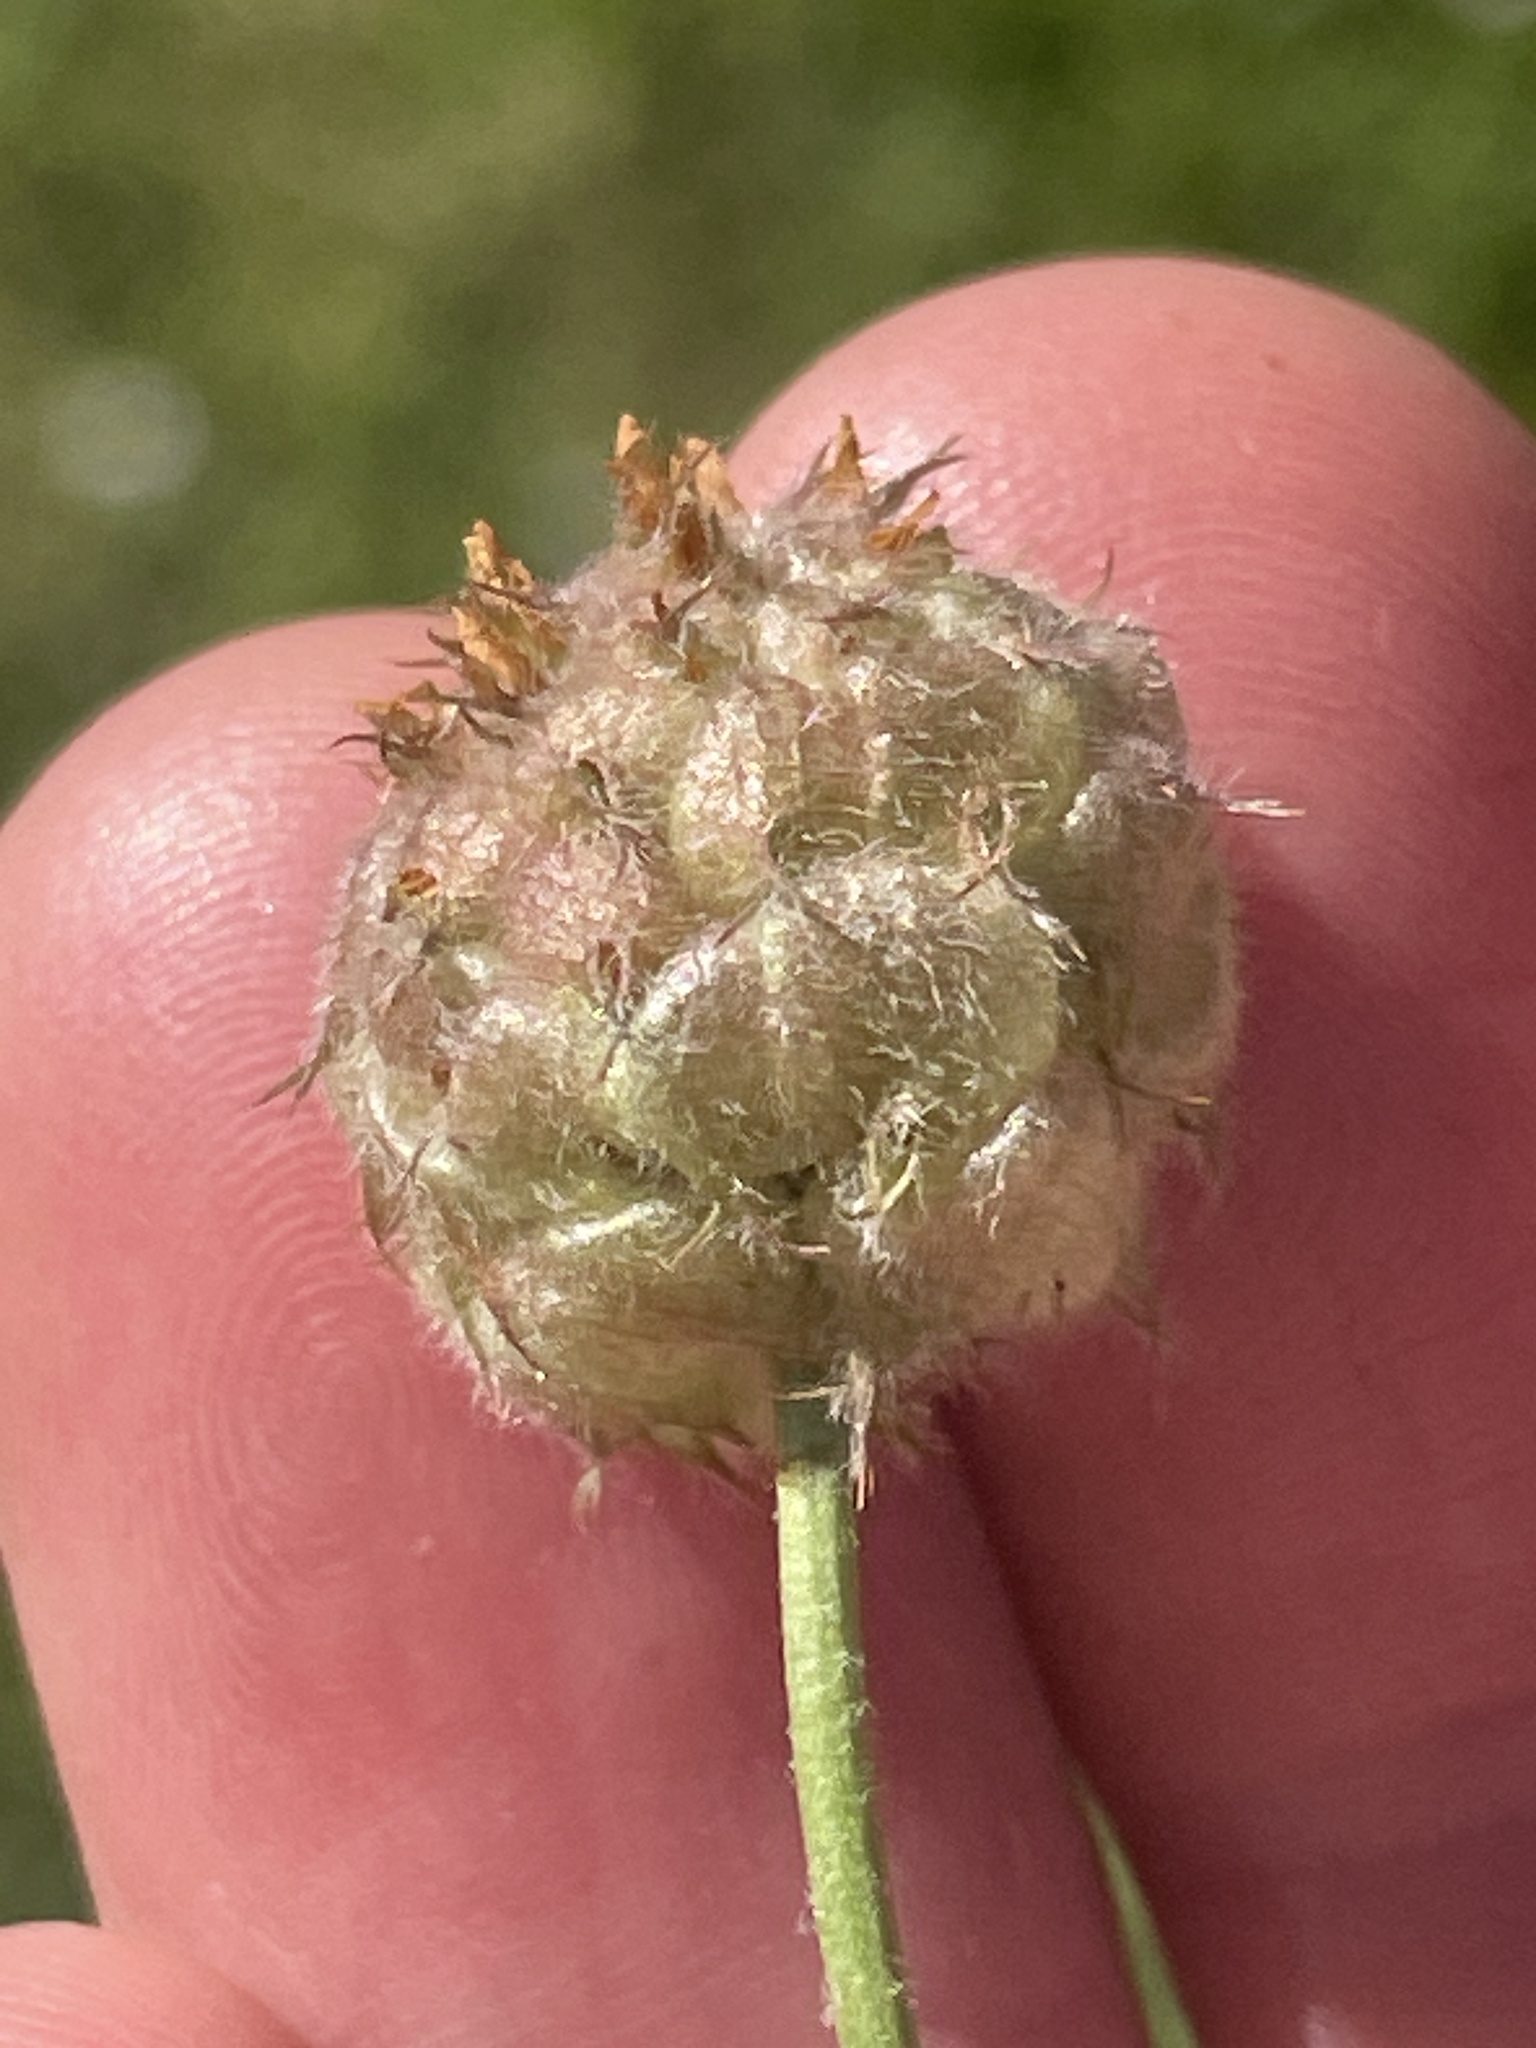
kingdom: Plantae
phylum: Tracheophyta
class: Magnoliopsida
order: Fabales
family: Fabaceae
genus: Trifolium
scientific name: Trifolium fragiferum
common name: Strawberry clover
